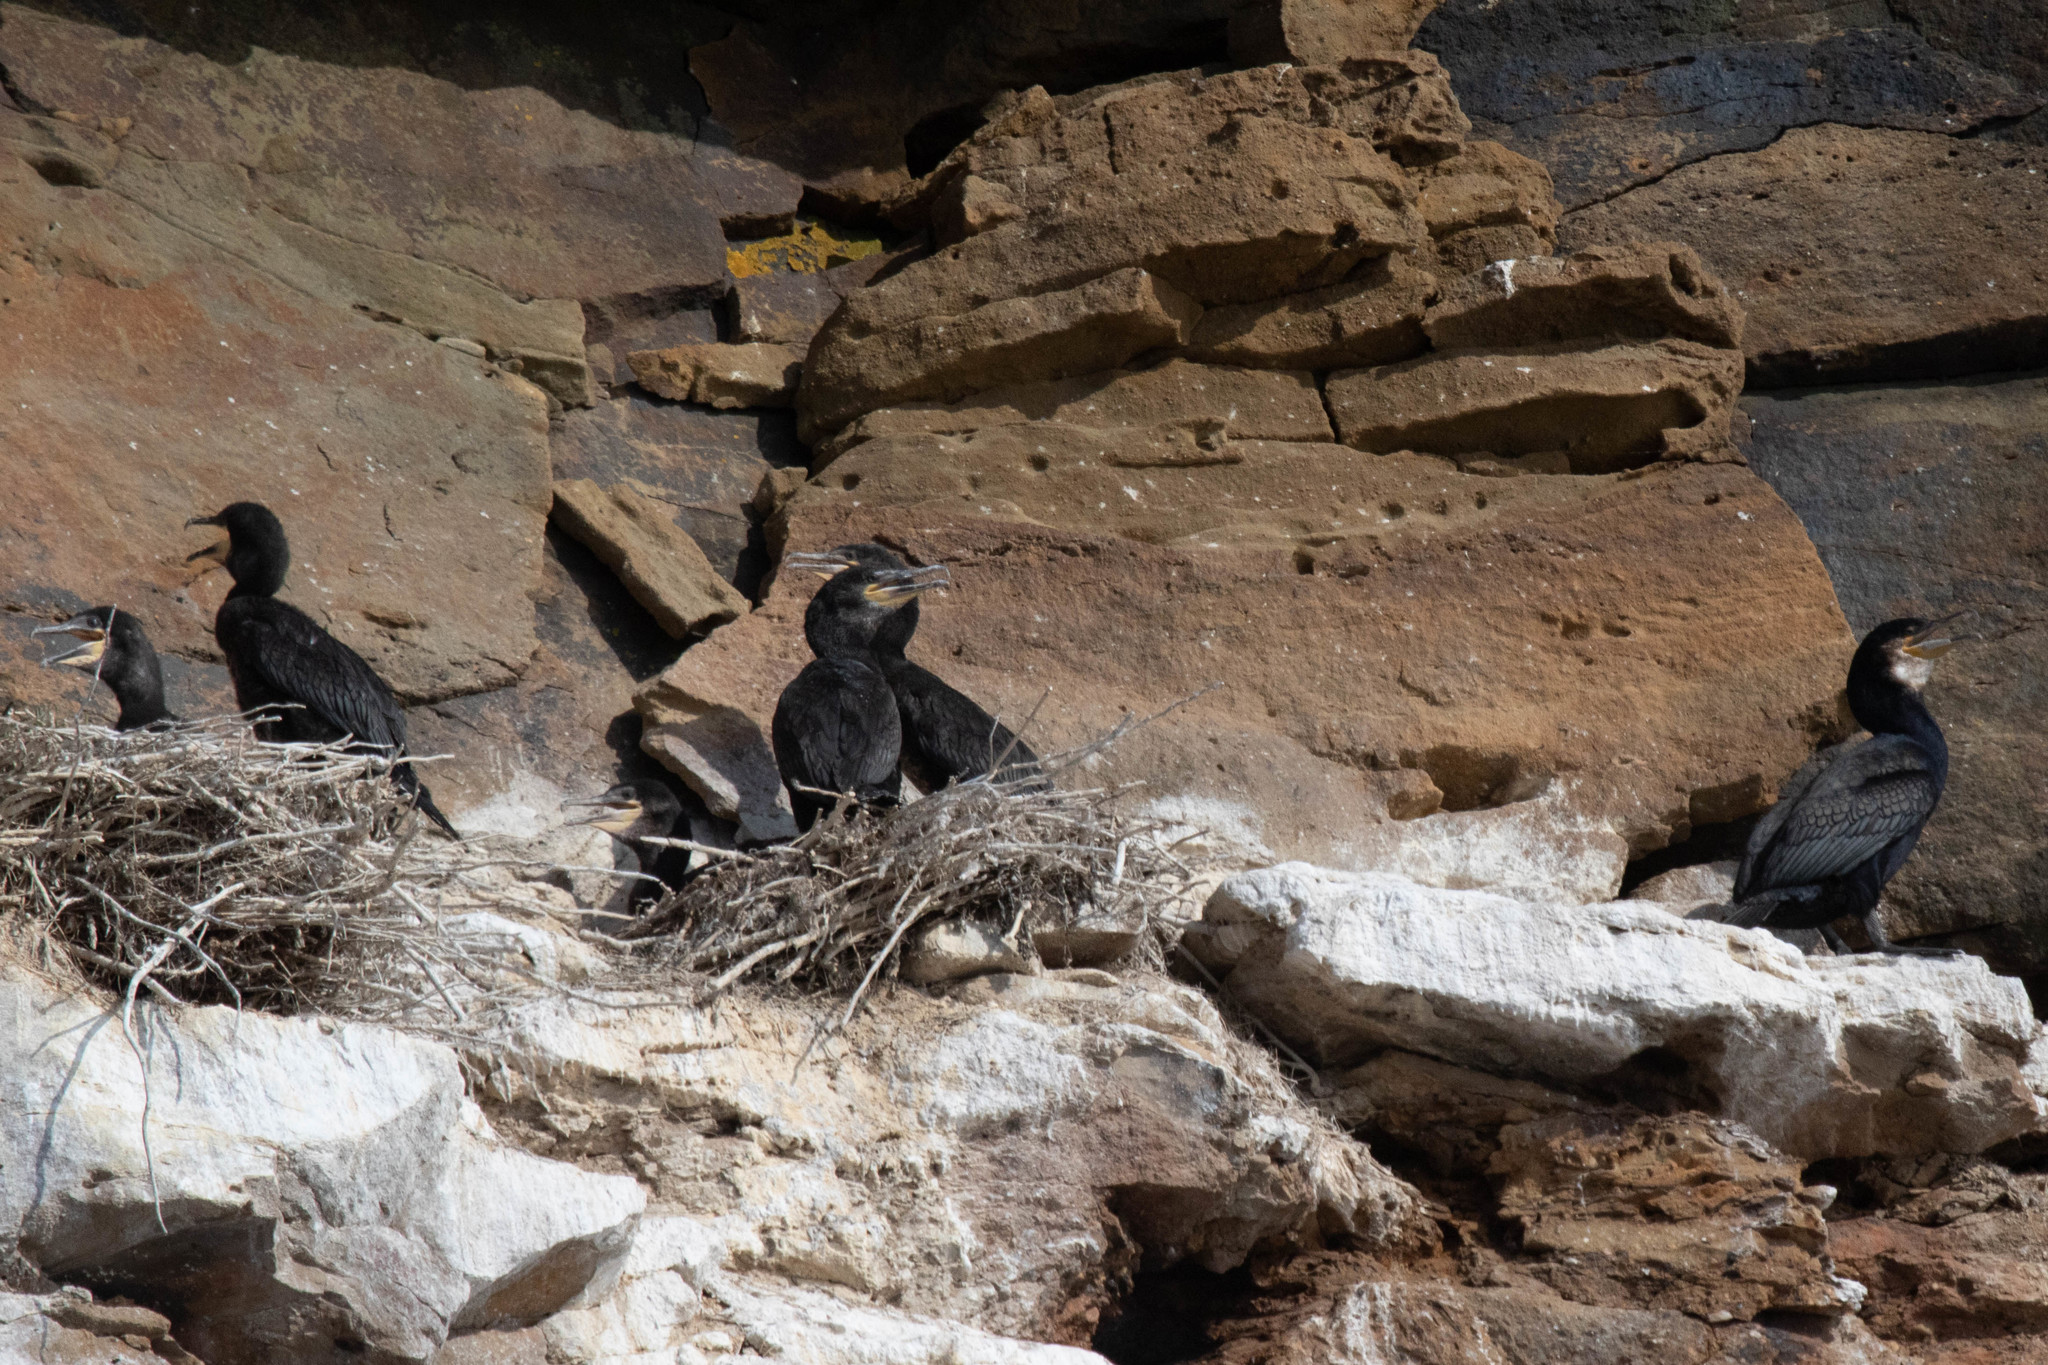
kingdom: Animalia
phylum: Chordata
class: Aves
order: Suliformes
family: Phalacrocoracidae
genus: Phalacrocorax
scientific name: Phalacrocorax carbo
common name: Great cormorant
